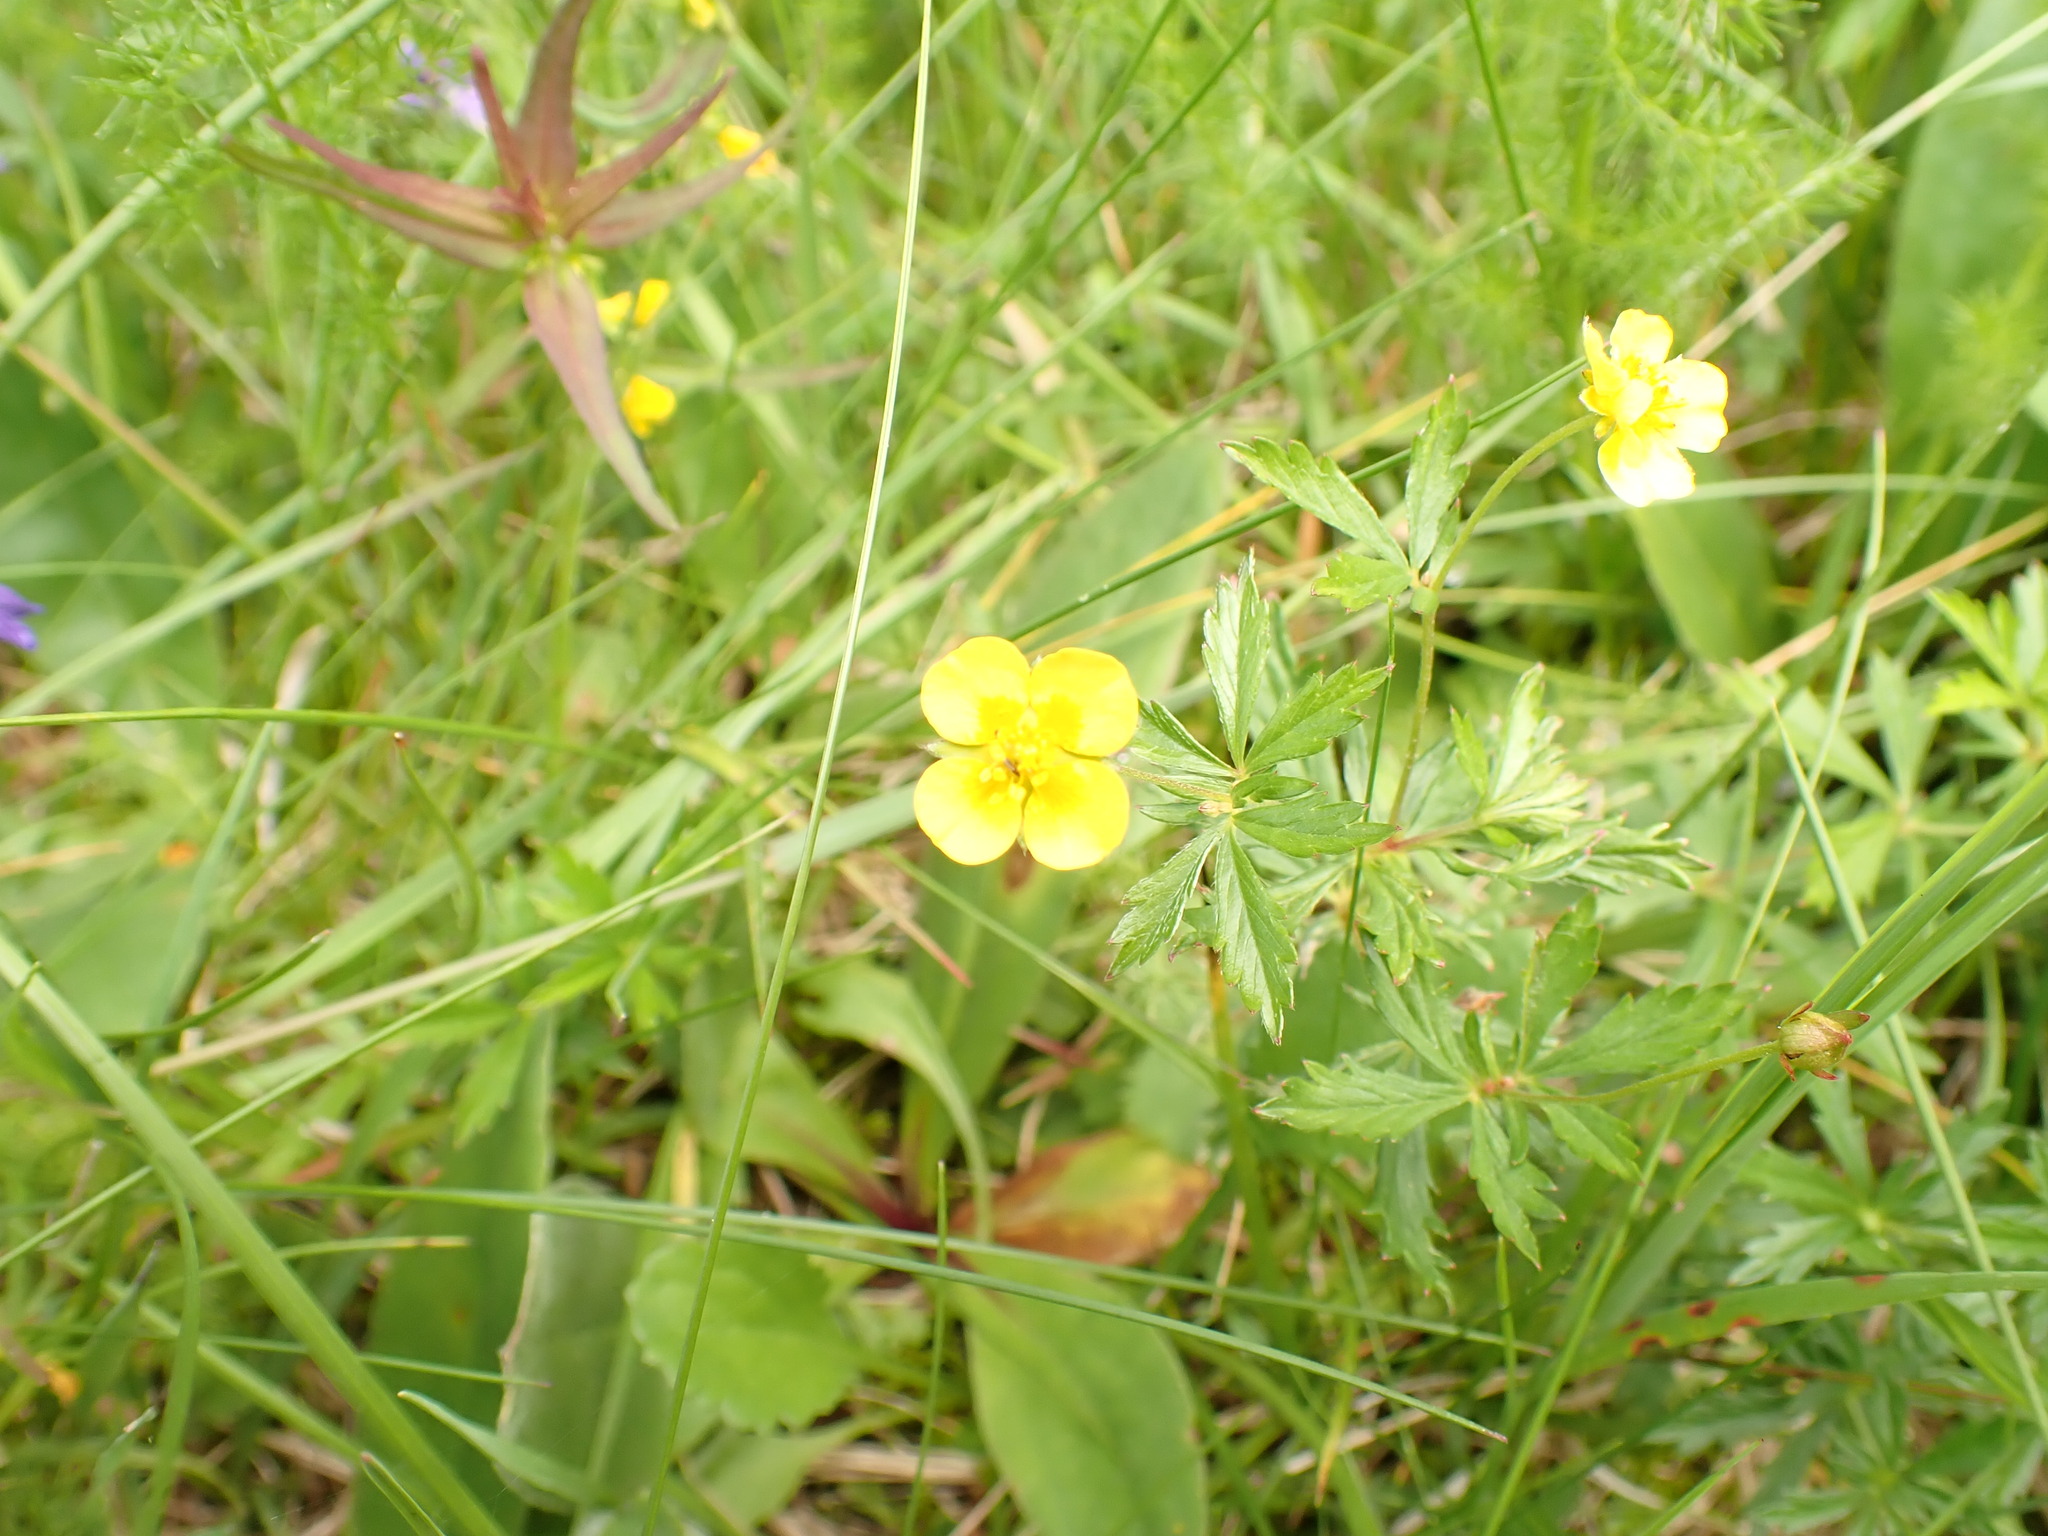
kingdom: Plantae
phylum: Tracheophyta
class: Magnoliopsida
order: Rosales
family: Rosaceae
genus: Potentilla
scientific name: Potentilla erecta
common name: Tormentil
